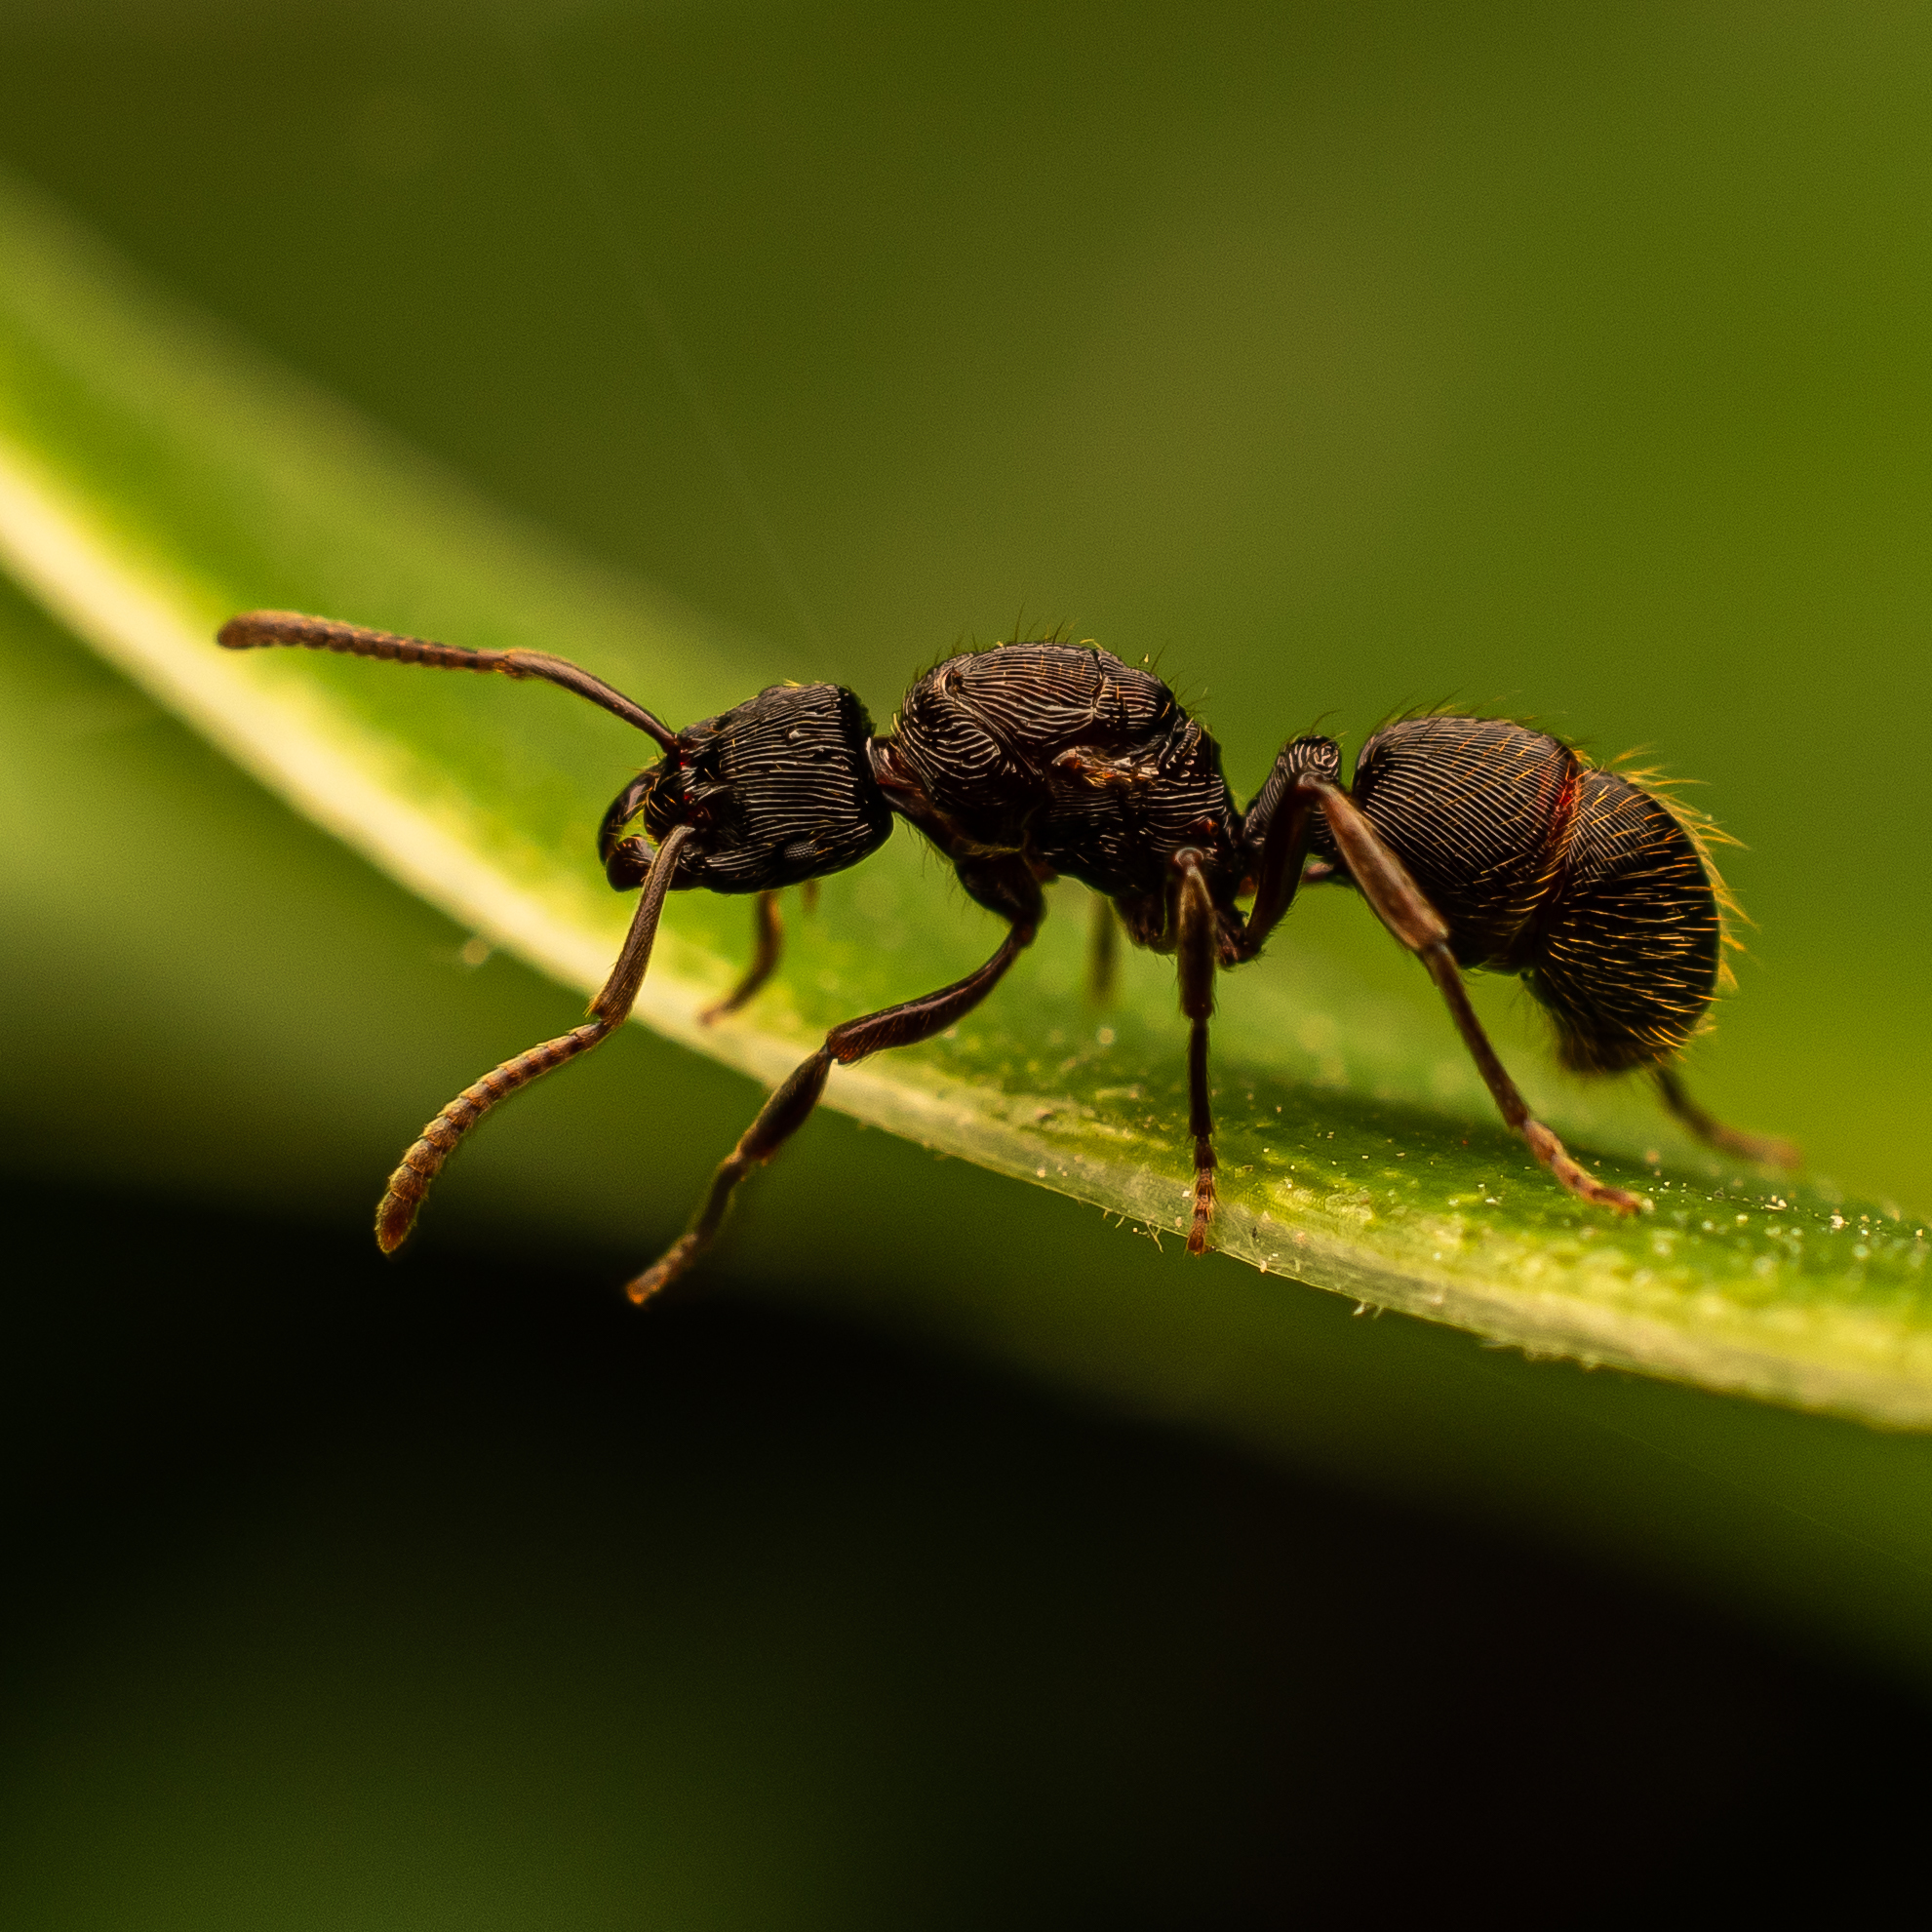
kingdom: Animalia
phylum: Arthropoda
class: Insecta
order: Hymenoptera
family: Formicidae
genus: Holcoponera
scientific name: Holcoponera
